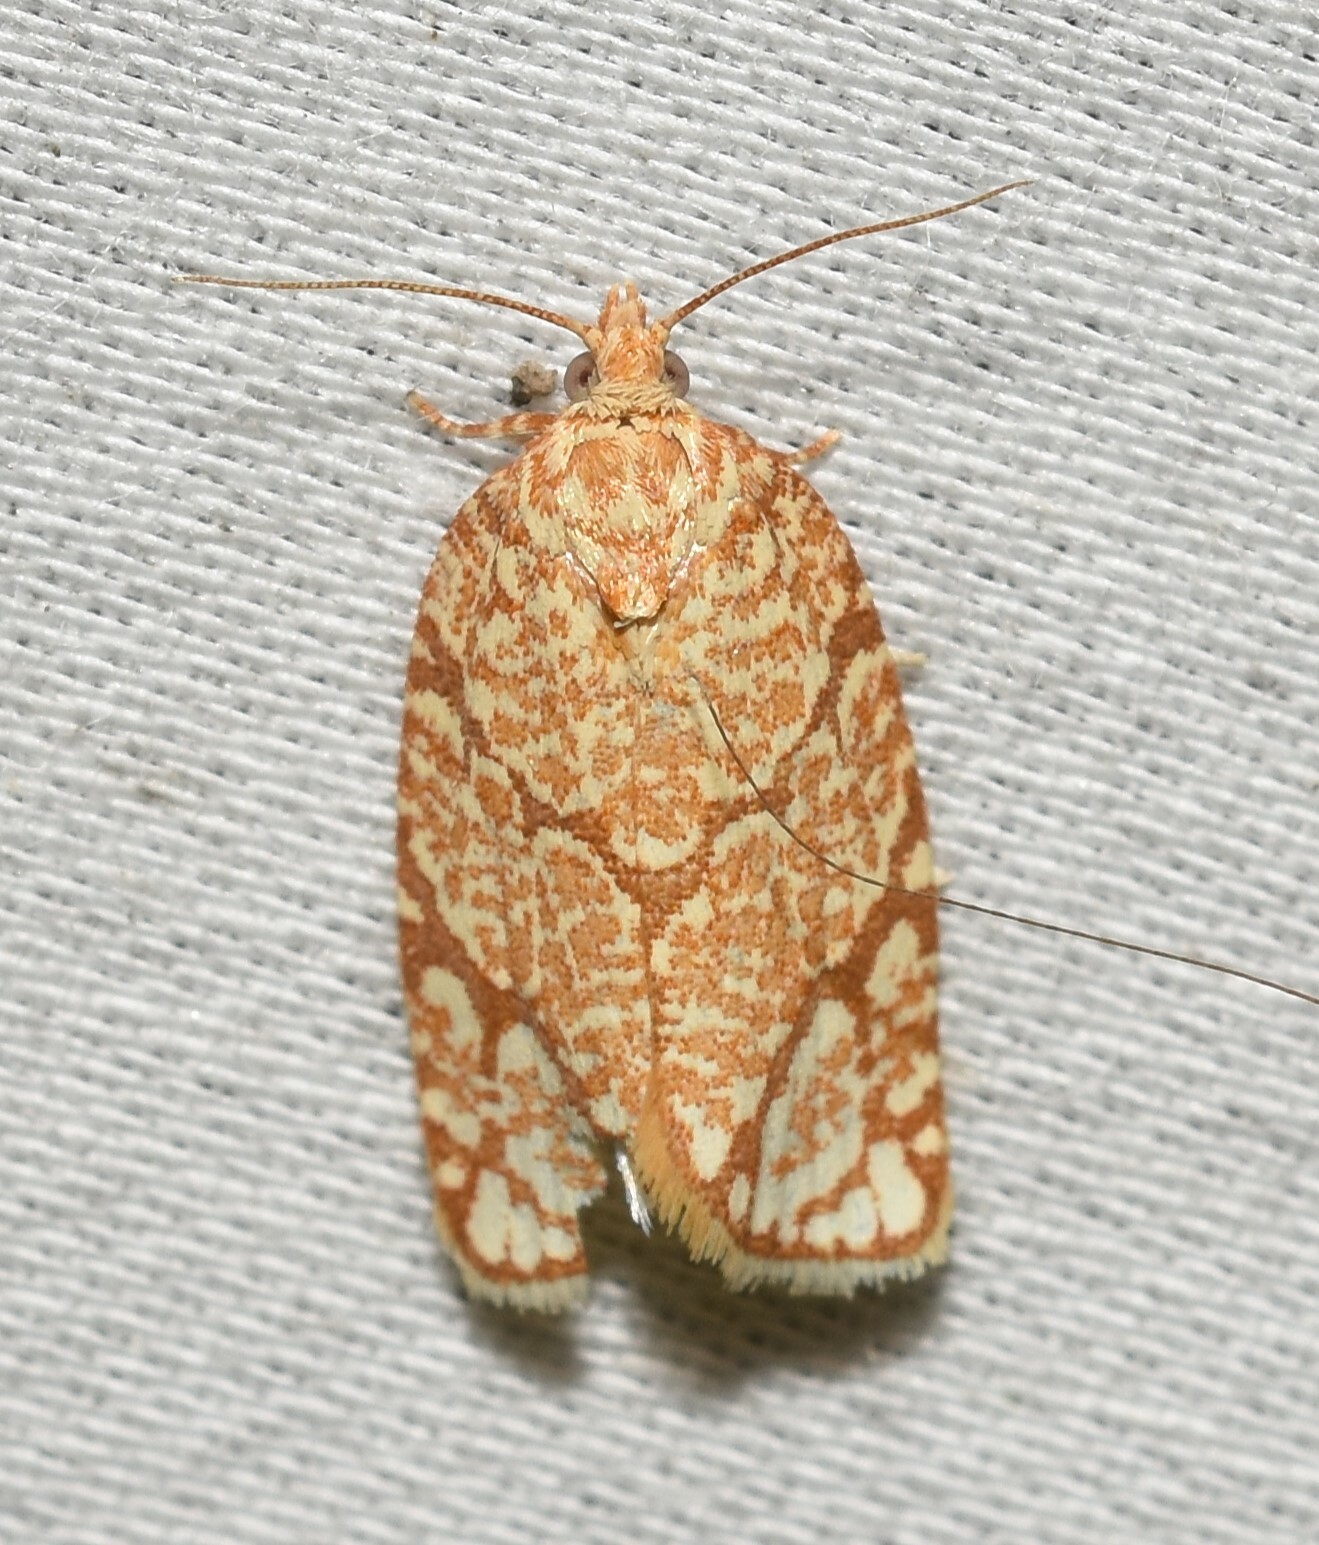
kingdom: Animalia
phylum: Arthropoda
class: Insecta
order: Lepidoptera
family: Tortricidae
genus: Argyrotaenia
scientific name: Argyrotaenia quercifoliana
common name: Yellow-winged oak leafroller moth
